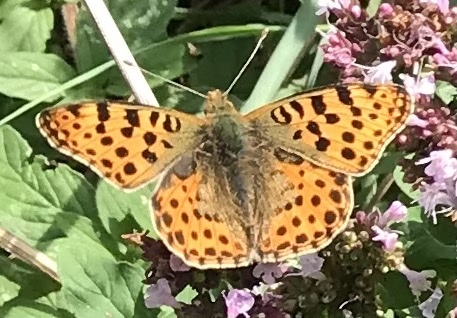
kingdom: Animalia
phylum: Arthropoda
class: Insecta
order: Lepidoptera
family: Nymphalidae
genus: Issoria
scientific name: Issoria lathonia
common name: Queen of spain fritillary
